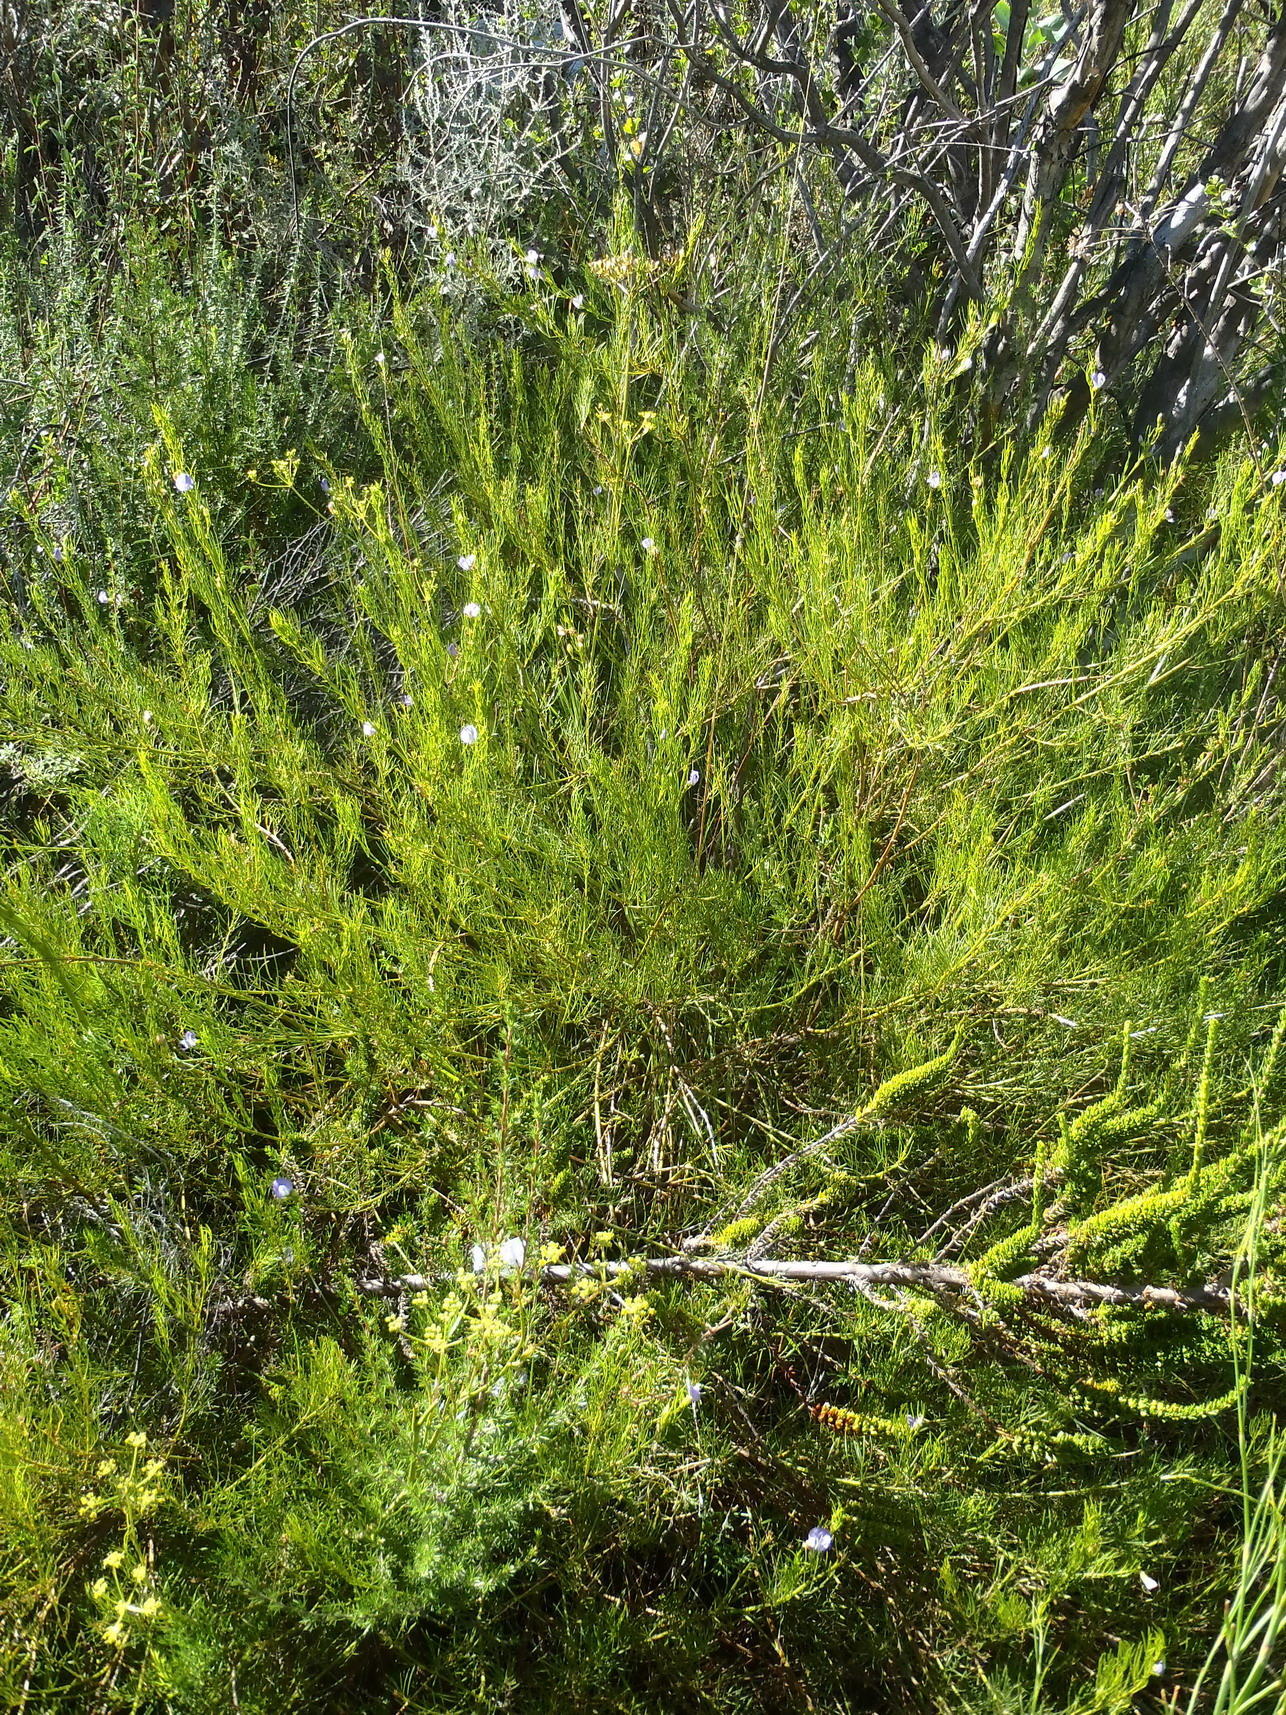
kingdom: Plantae
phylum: Tracheophyta
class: Magnoliopsida
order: Fabales
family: Fabaceae
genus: Psoralea
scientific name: Psoralea laevigata
